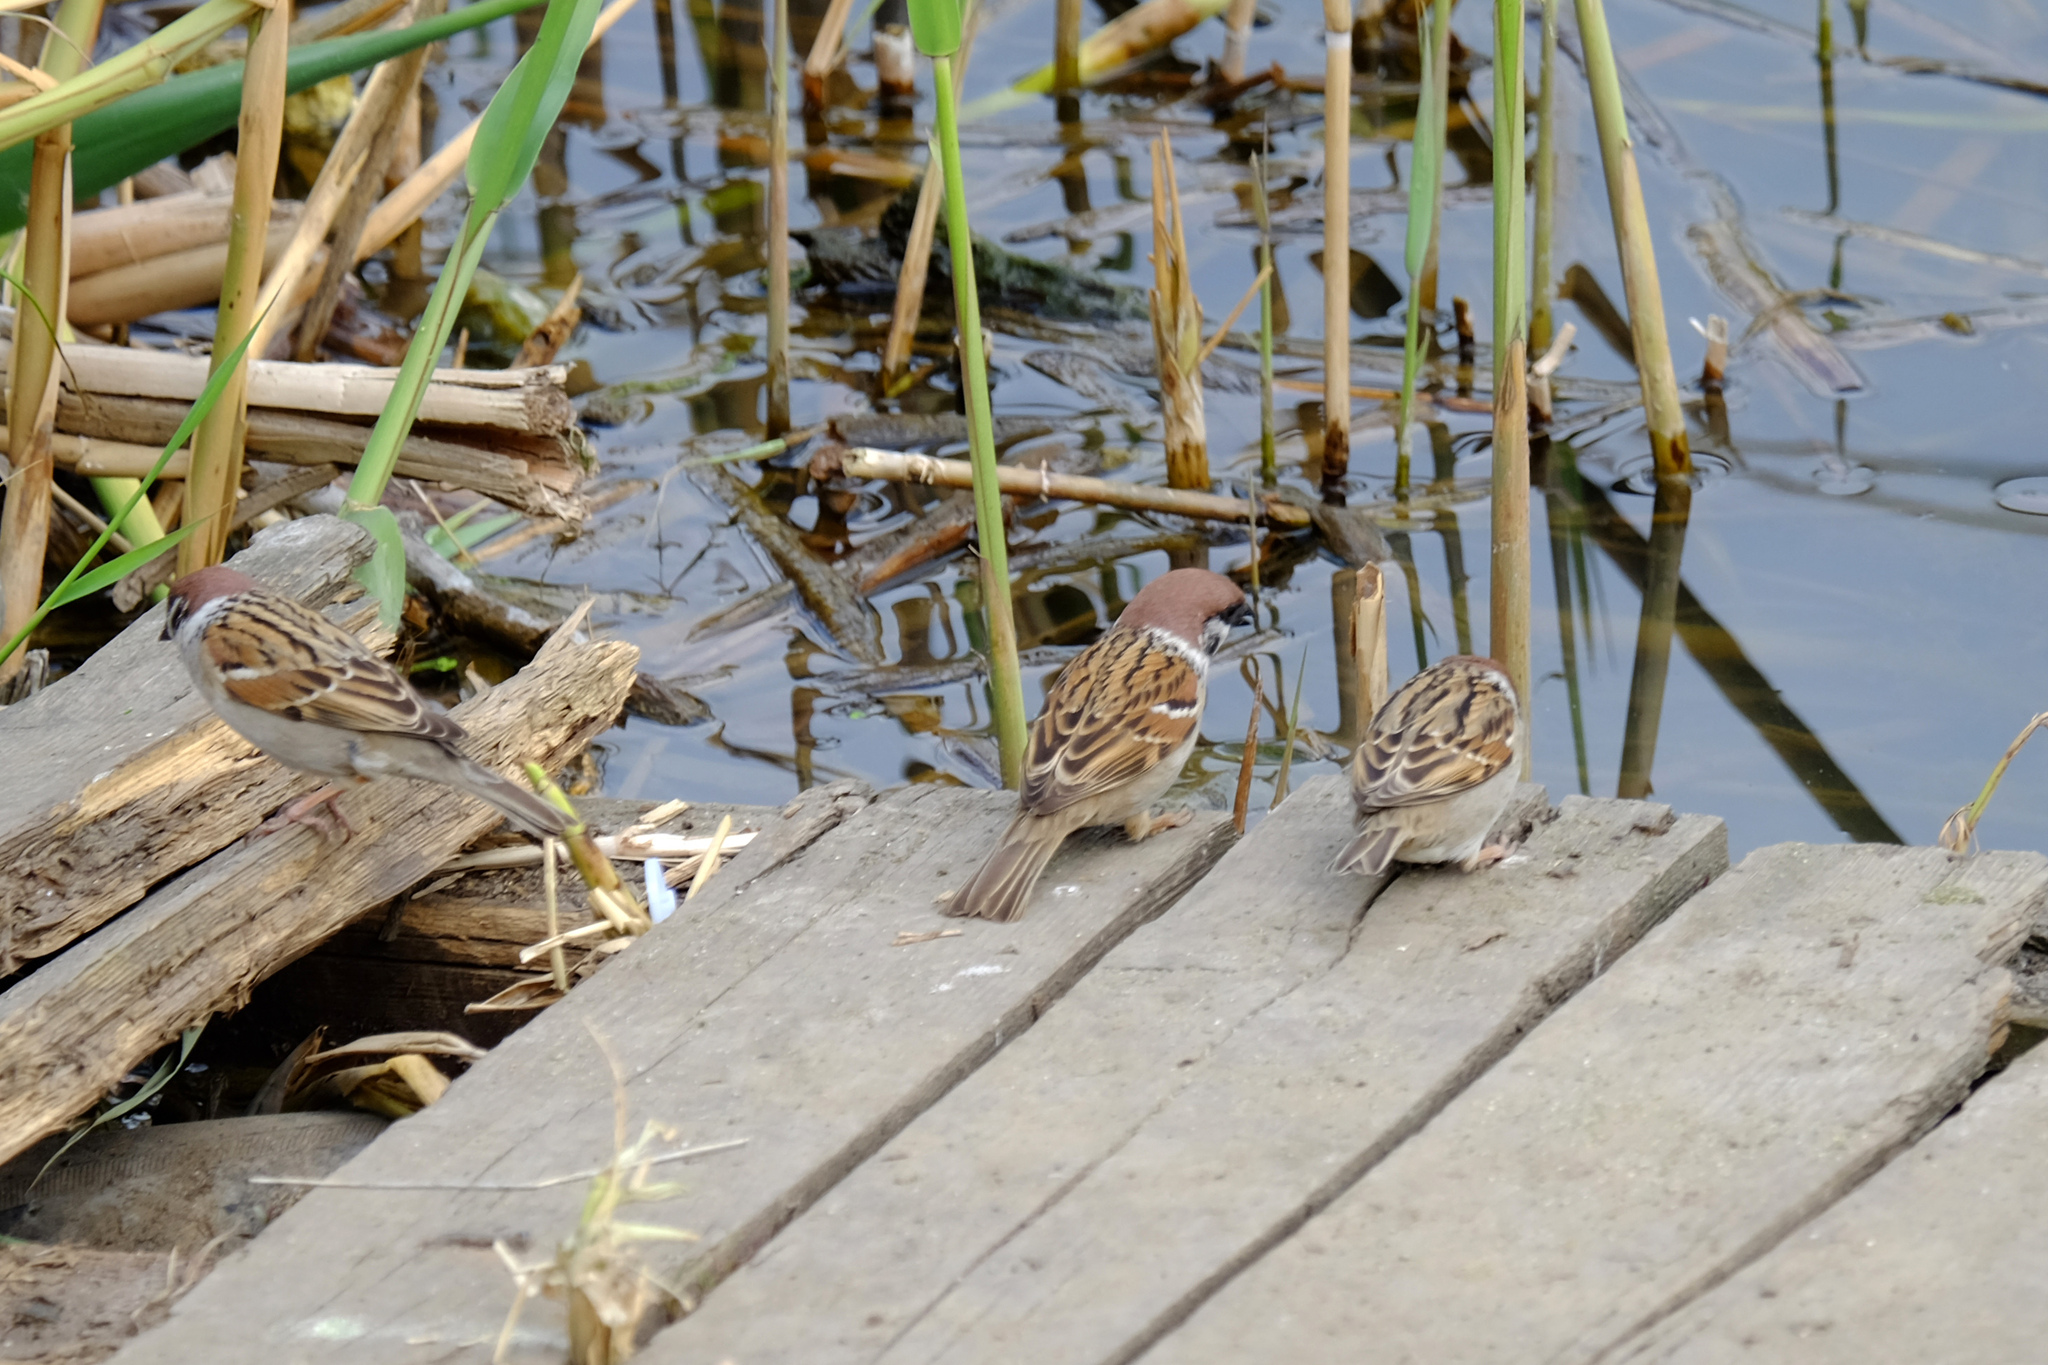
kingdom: Animalia
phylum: Chordata
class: Aves
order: Passeriformes
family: Passeridae
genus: Passer
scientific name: Passer montanus
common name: Eurasian tree sparrow
